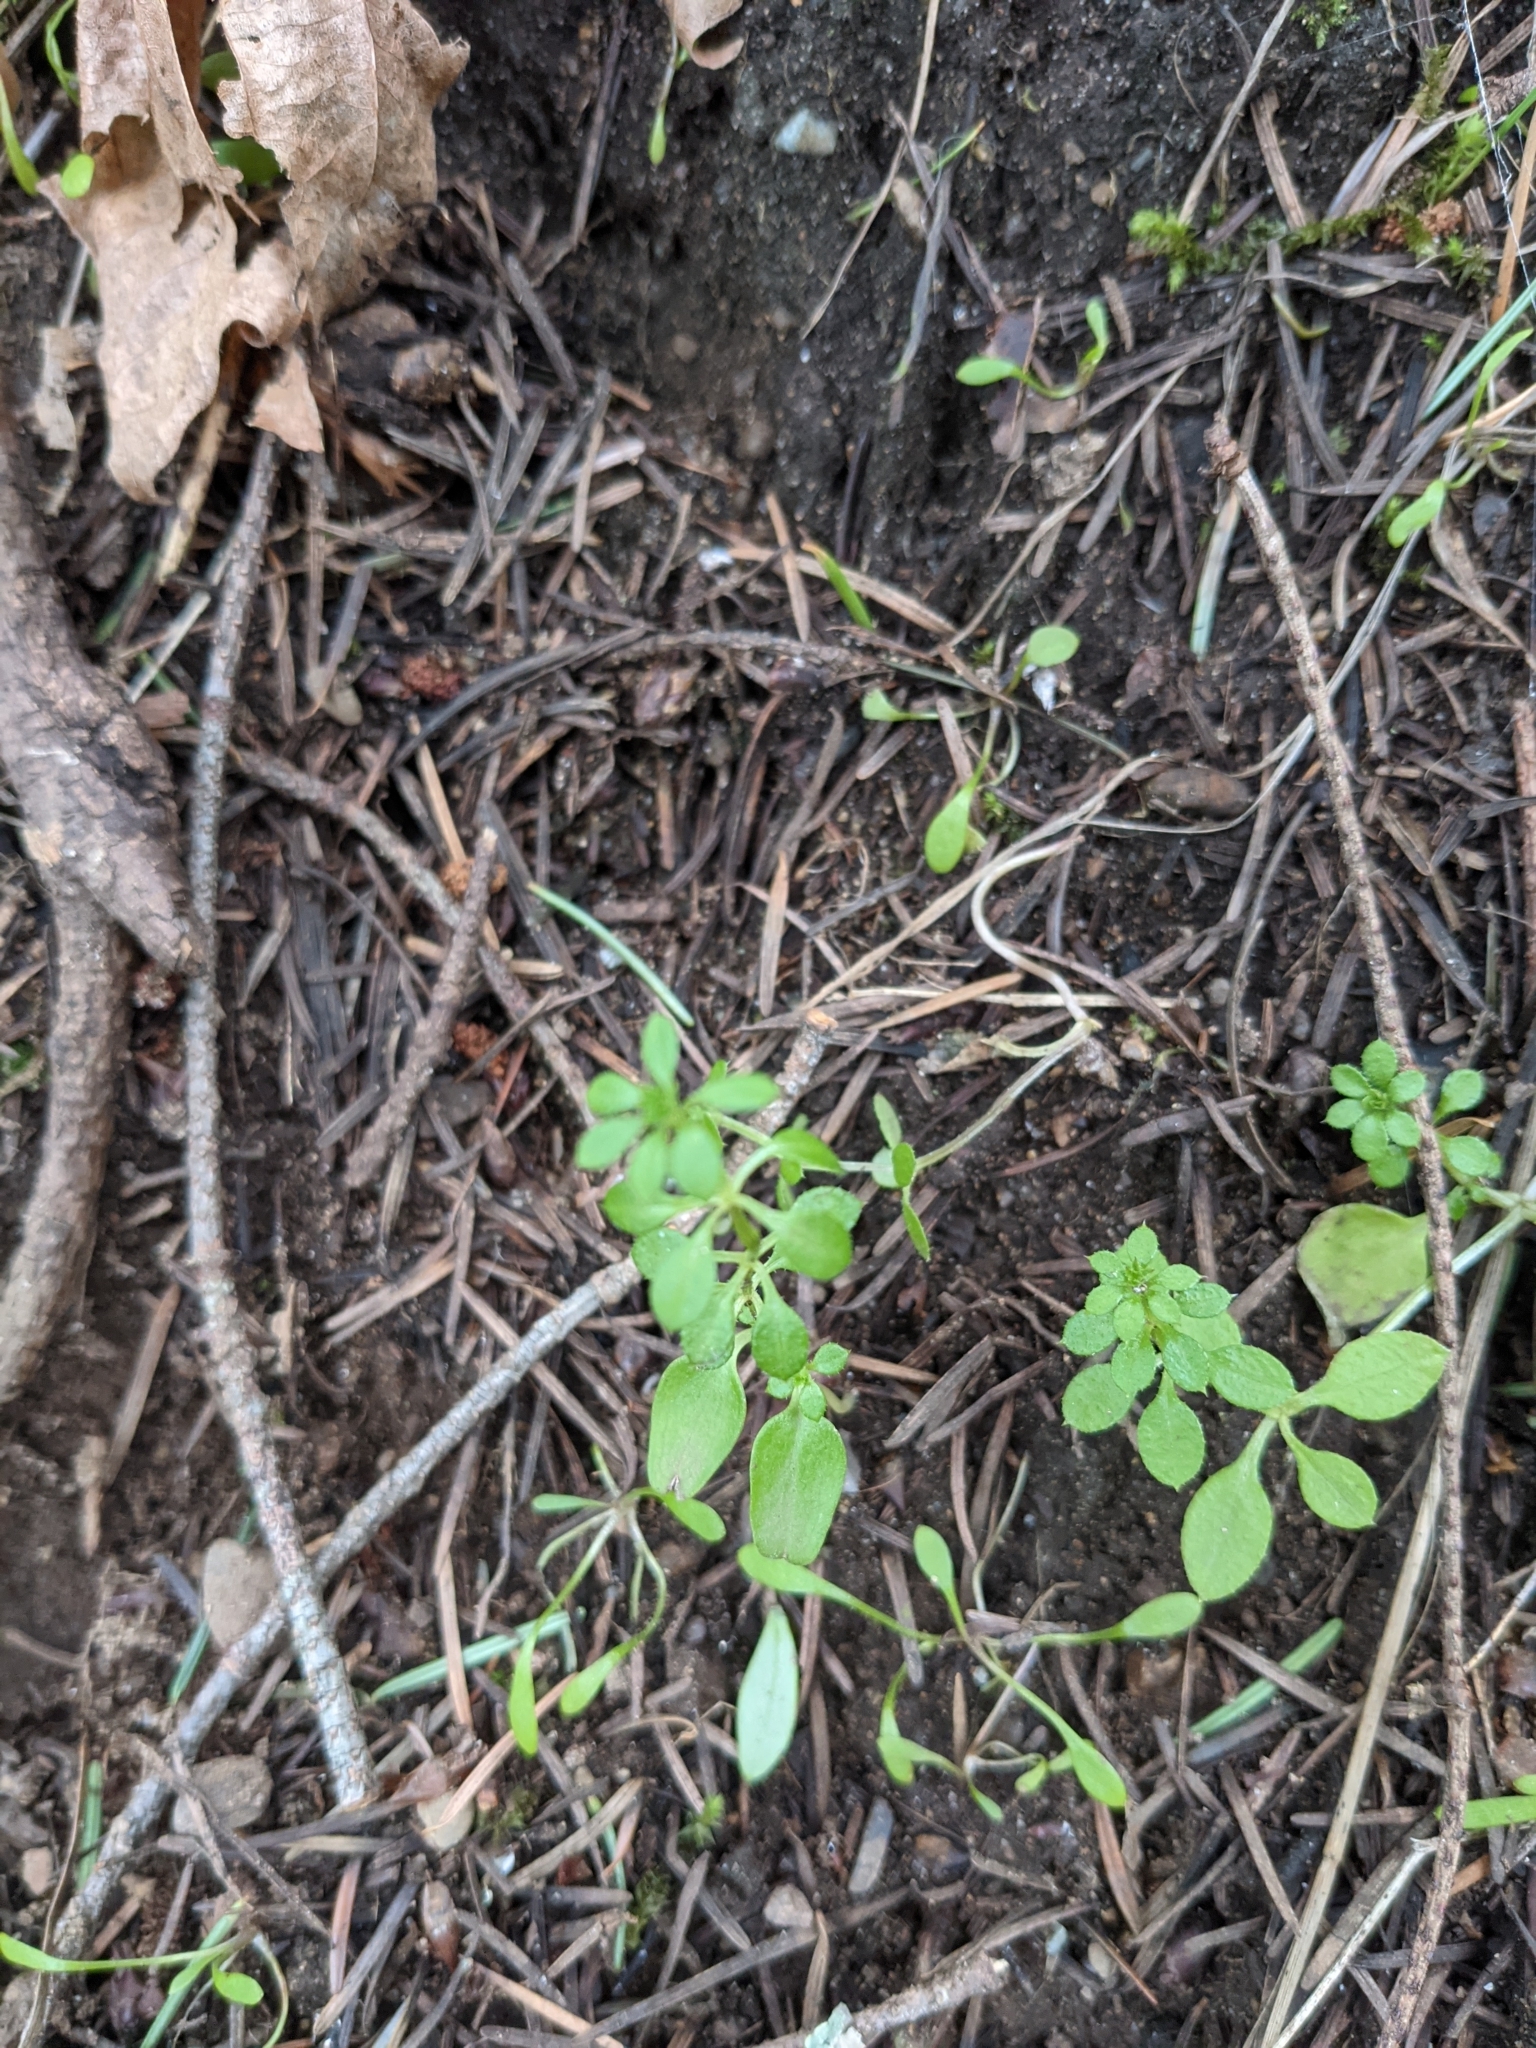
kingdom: Plantae
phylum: Tracheophyta
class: Magnoliopsida
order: Gentianales
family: Rubiaceae
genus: Galium
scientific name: Galium aparine
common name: Cleavers
